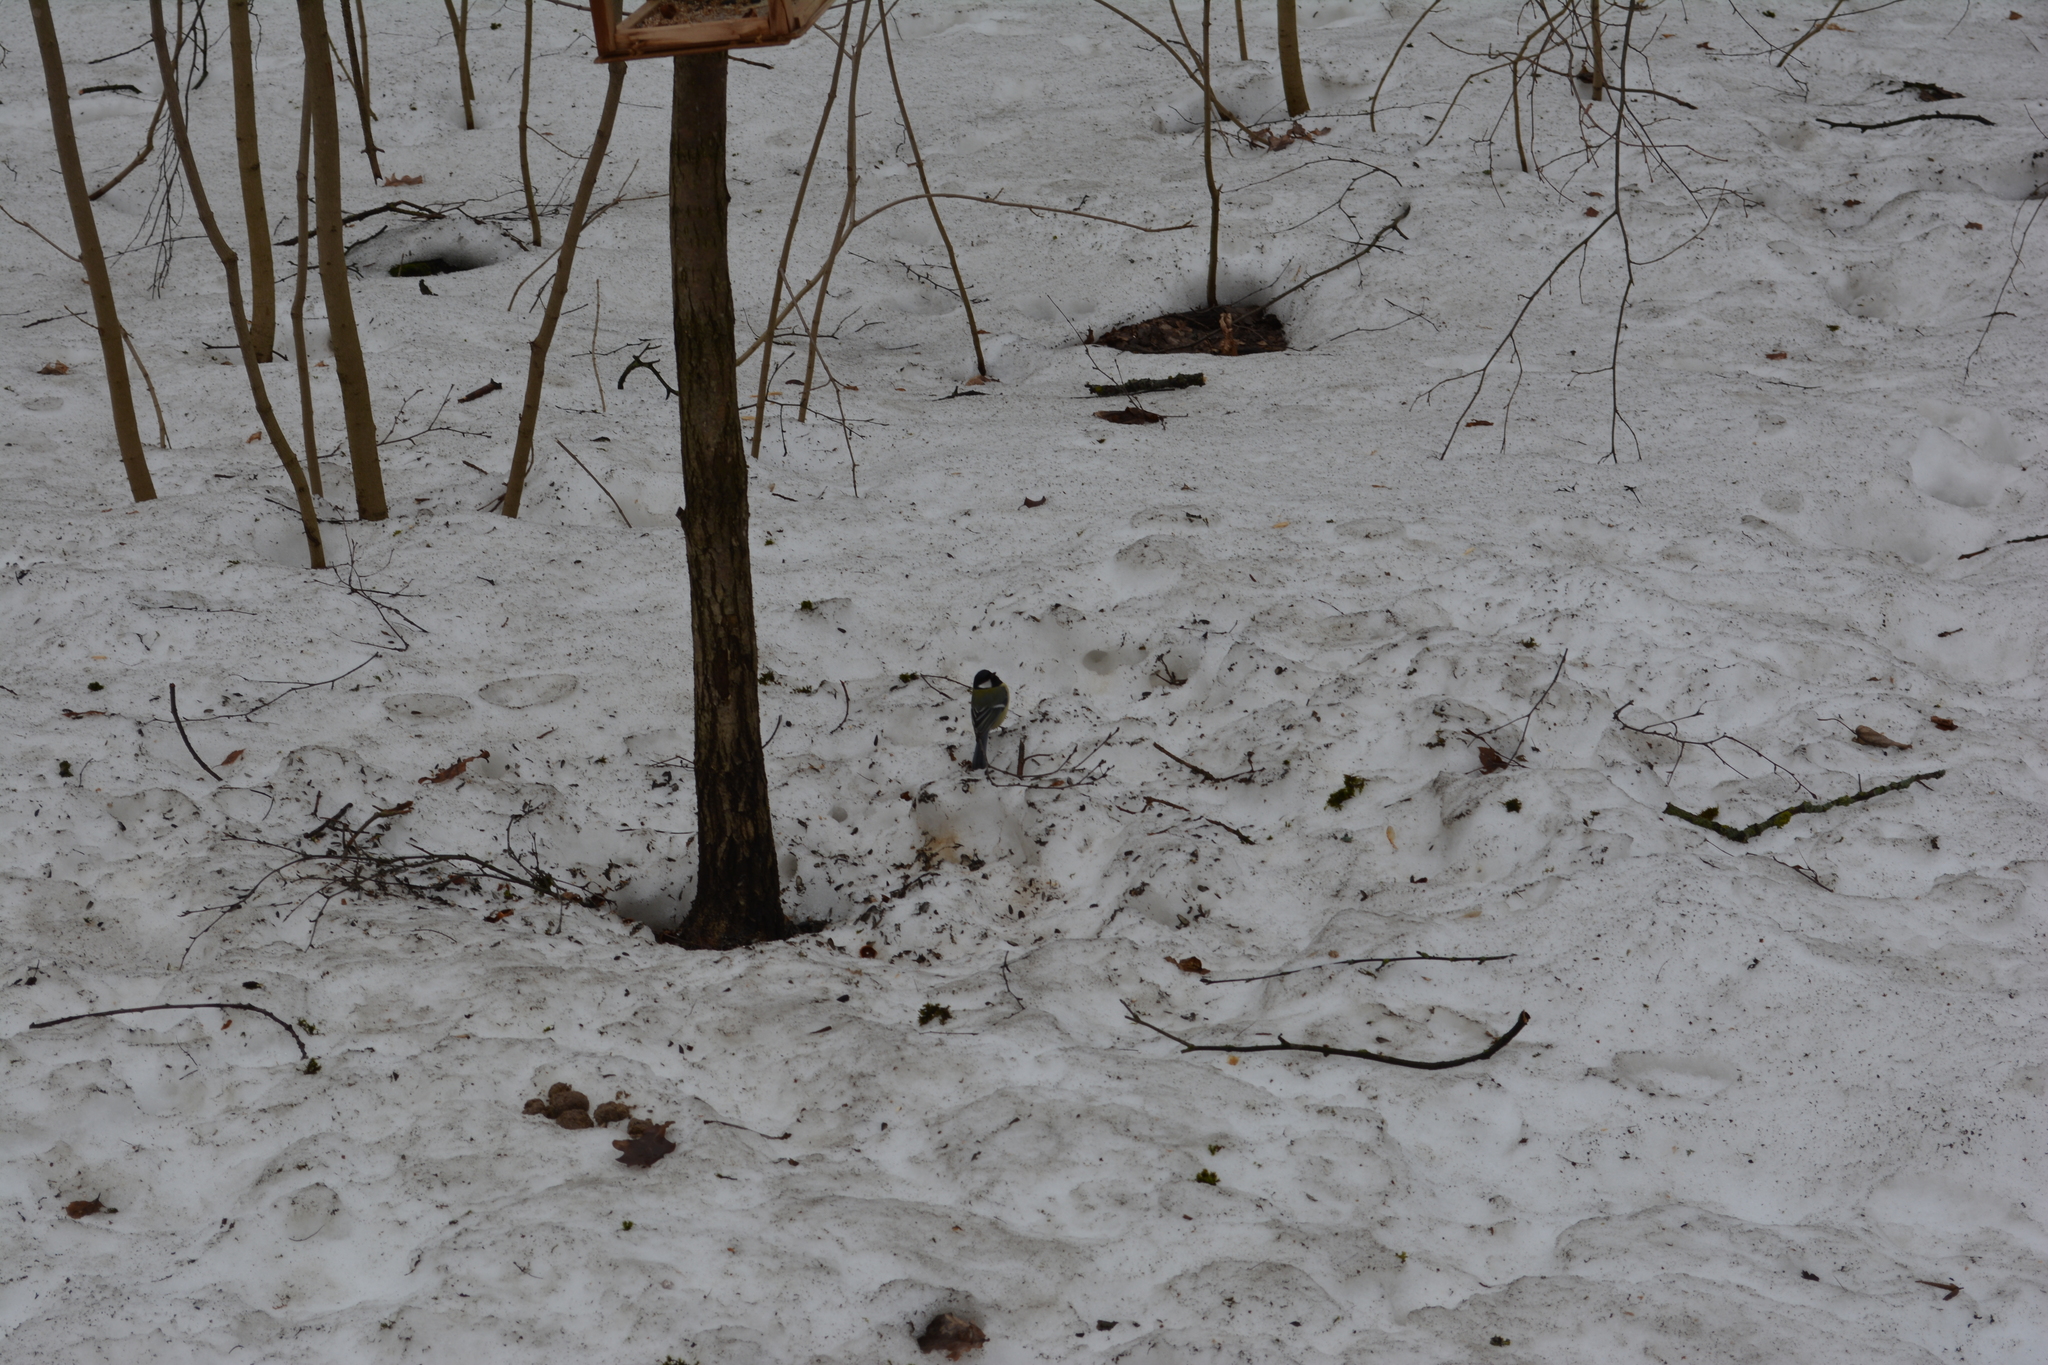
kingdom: Animalia
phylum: Chordata
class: Aves
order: Passeriformes
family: Paridae
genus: Parus
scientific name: Parus major
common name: Great tit
